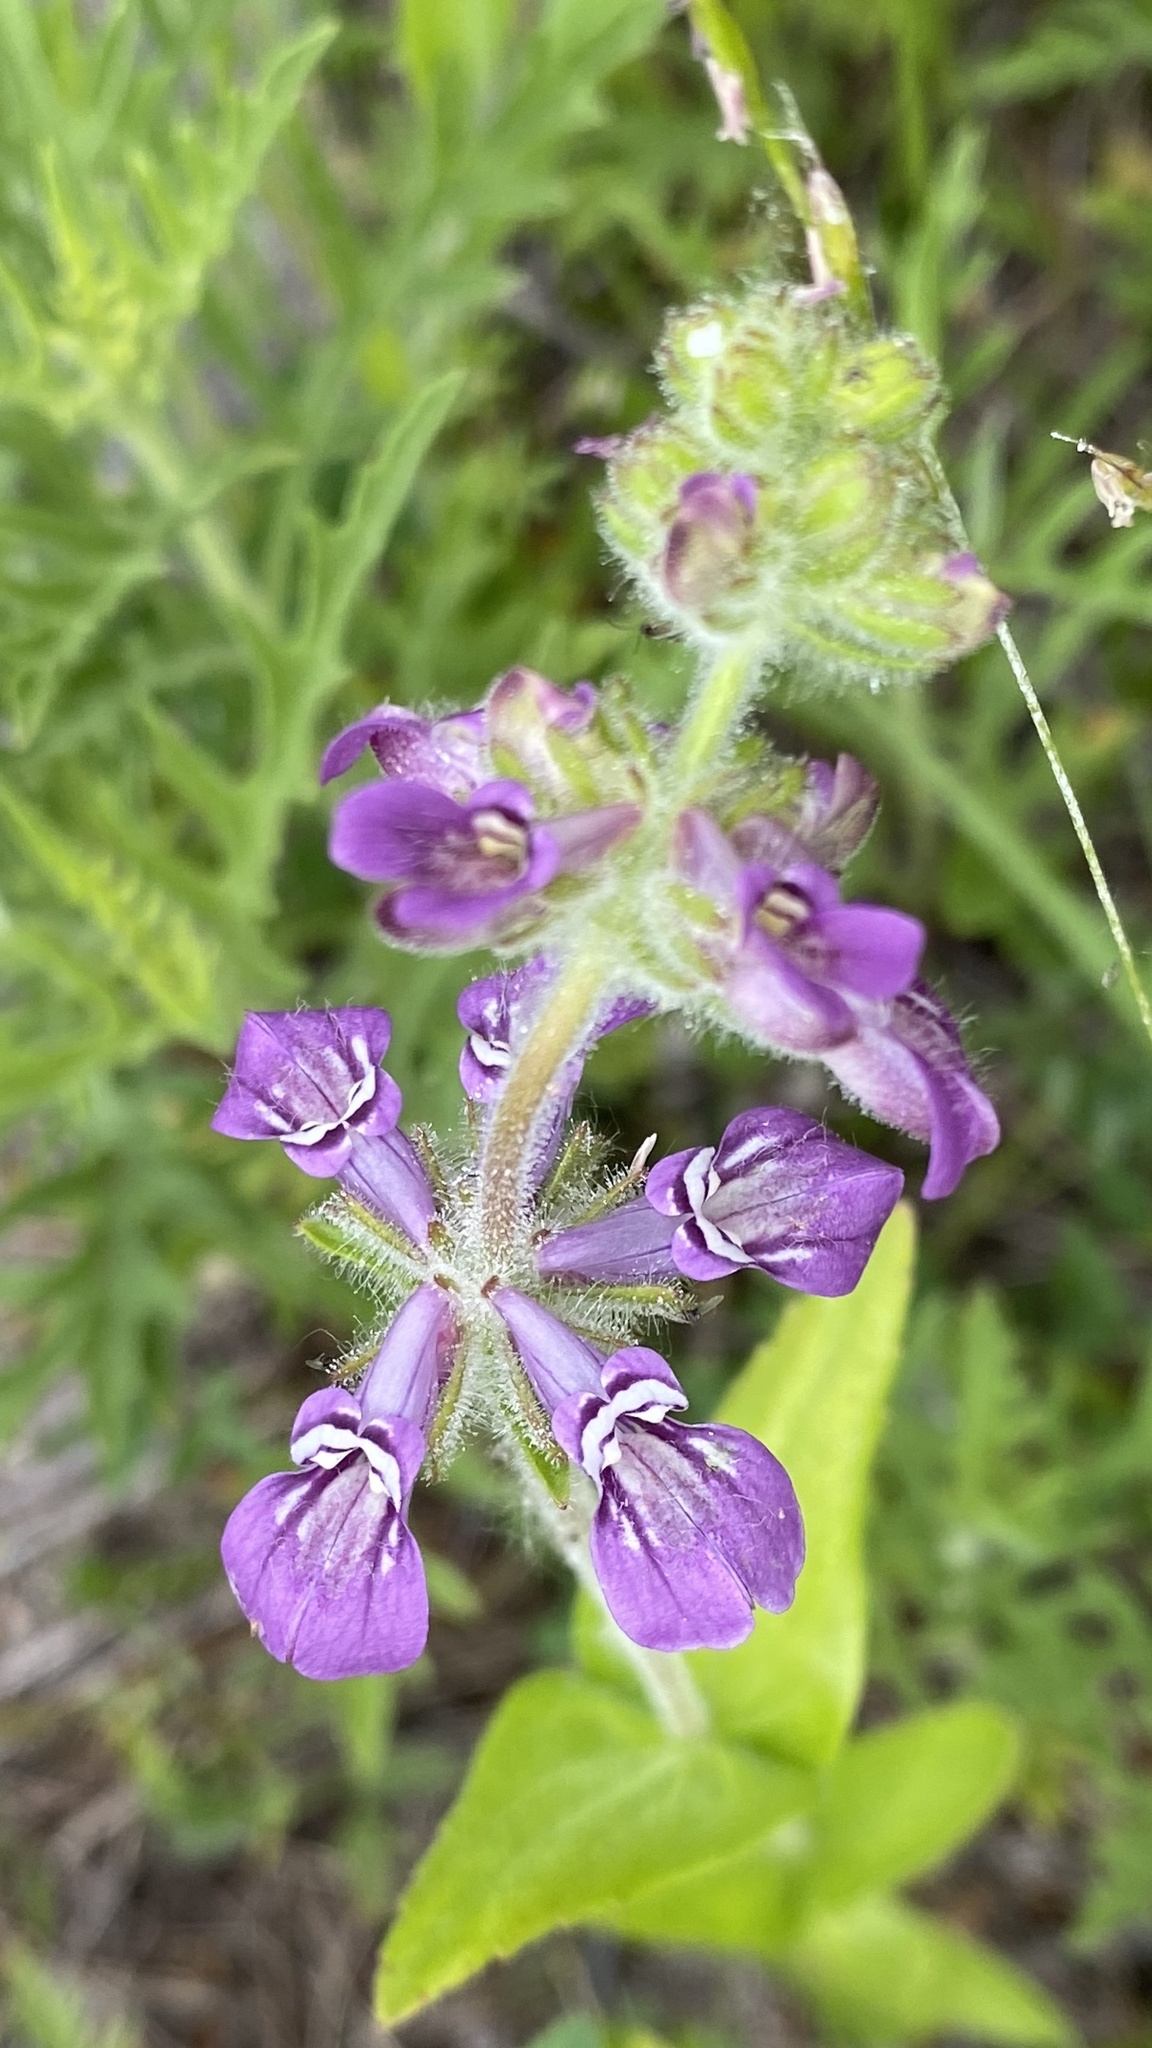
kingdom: Plantae
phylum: Tracheophyta
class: Magnoliopsida
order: Lamiales
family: Plantaginaceae
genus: Collinsia
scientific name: Collinsia tinctoria
